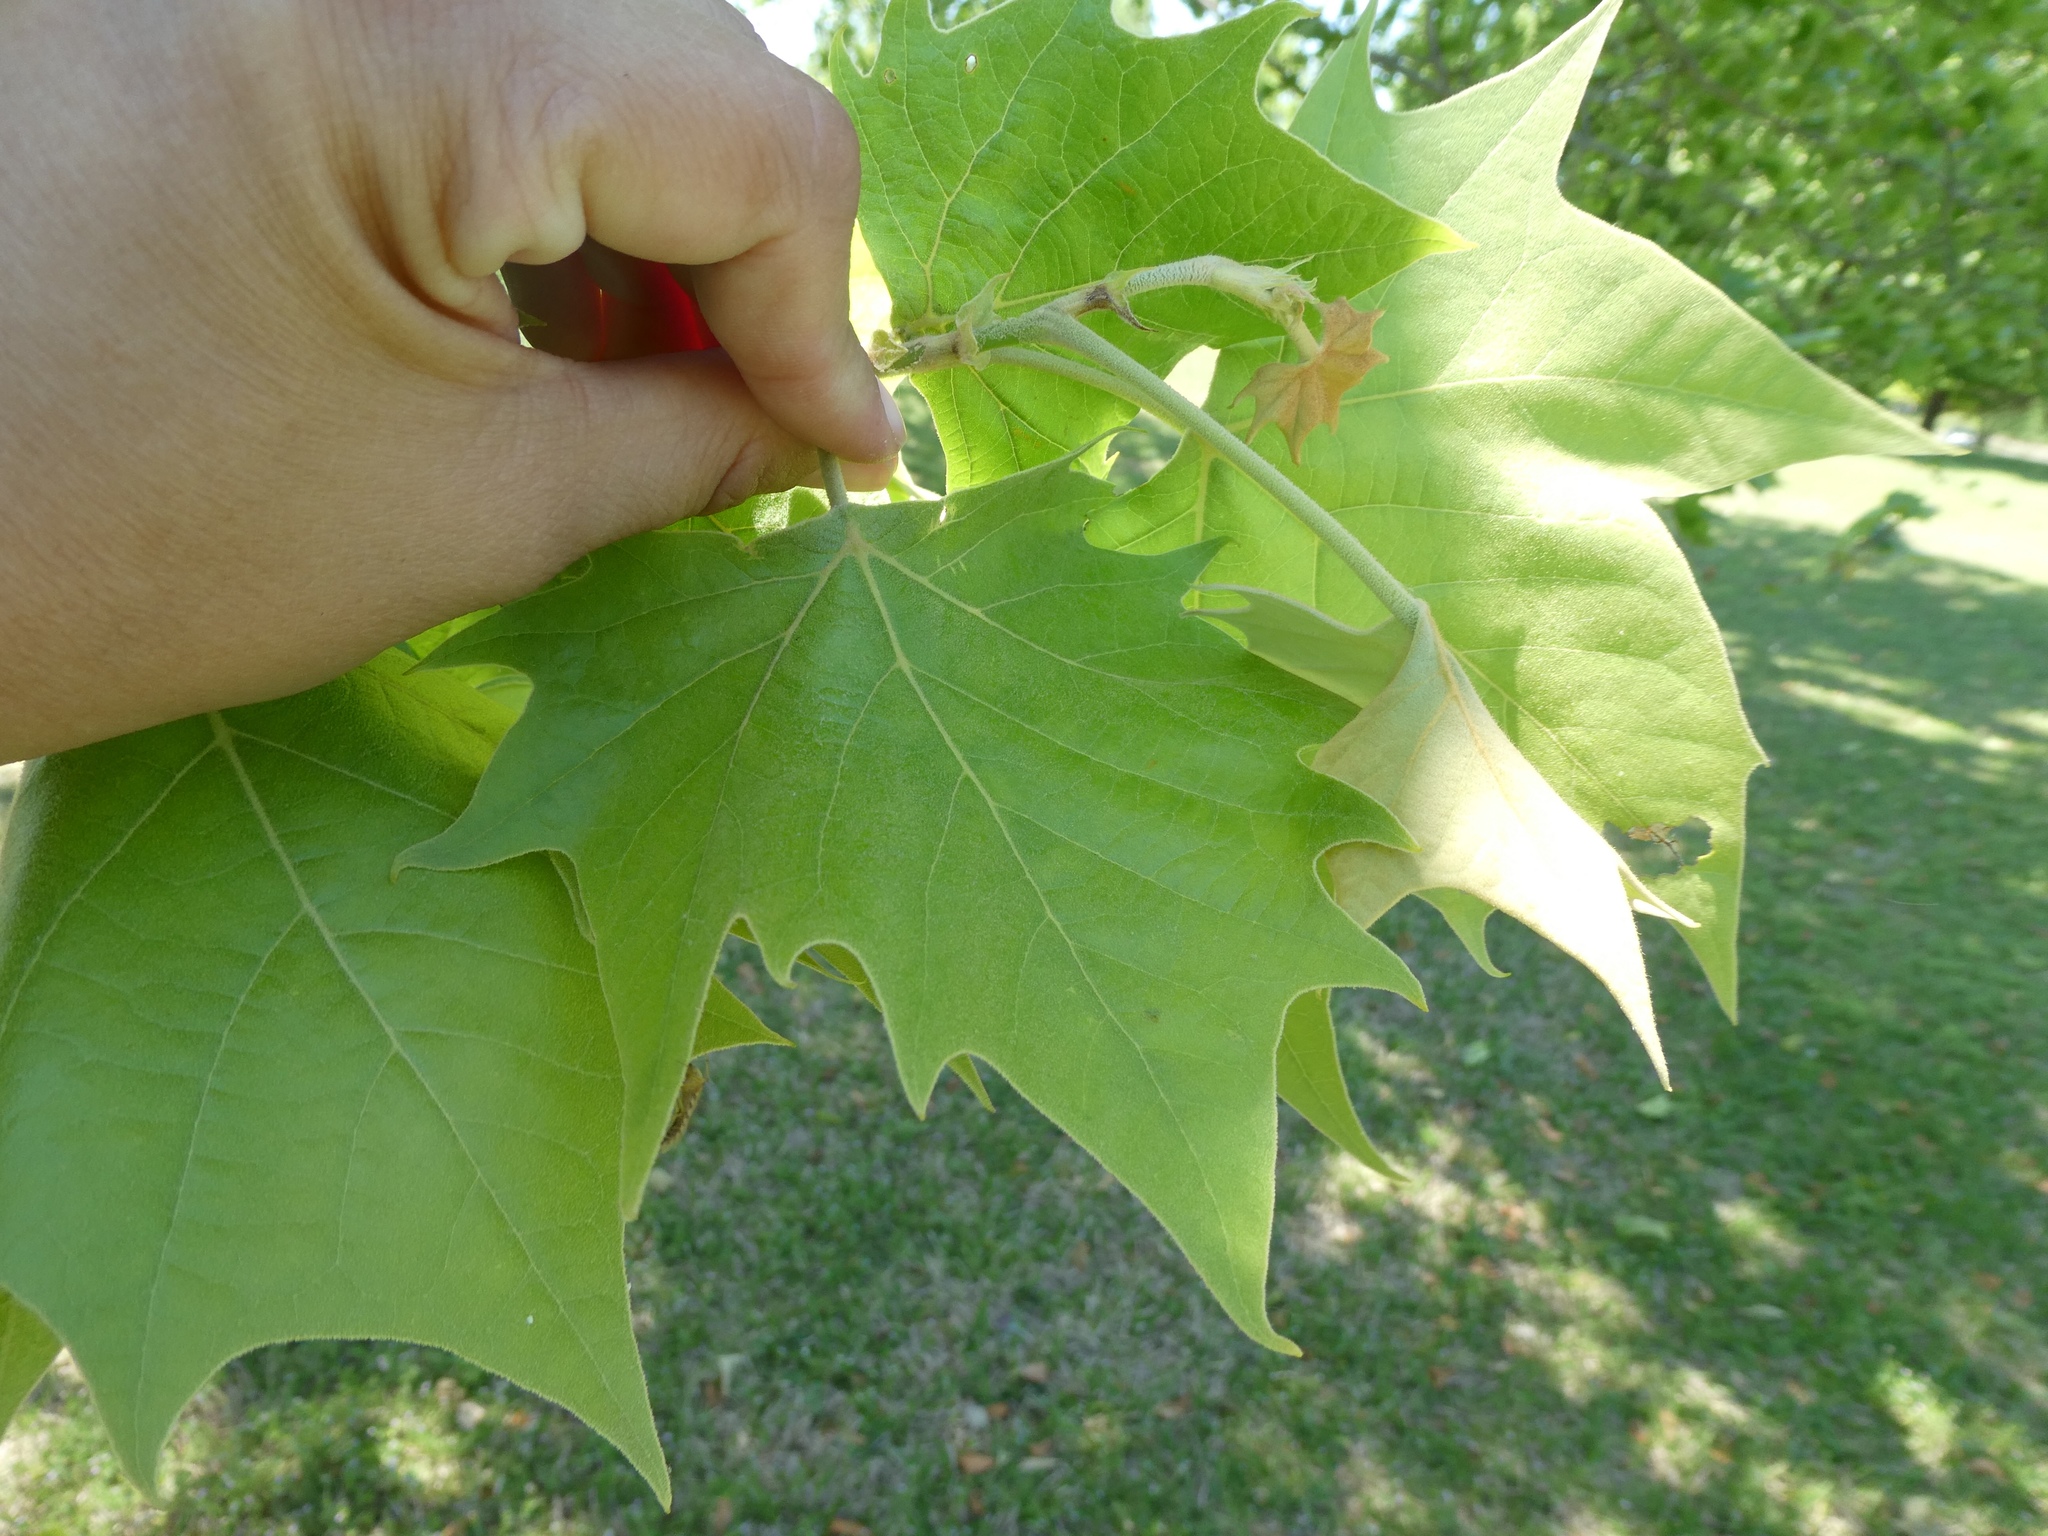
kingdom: Plantae
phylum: Tracheophyta
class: Magnoliopsida
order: Proteales
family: Platanaceae
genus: Platanus
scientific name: Platanus occidentalis
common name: American sycamore
